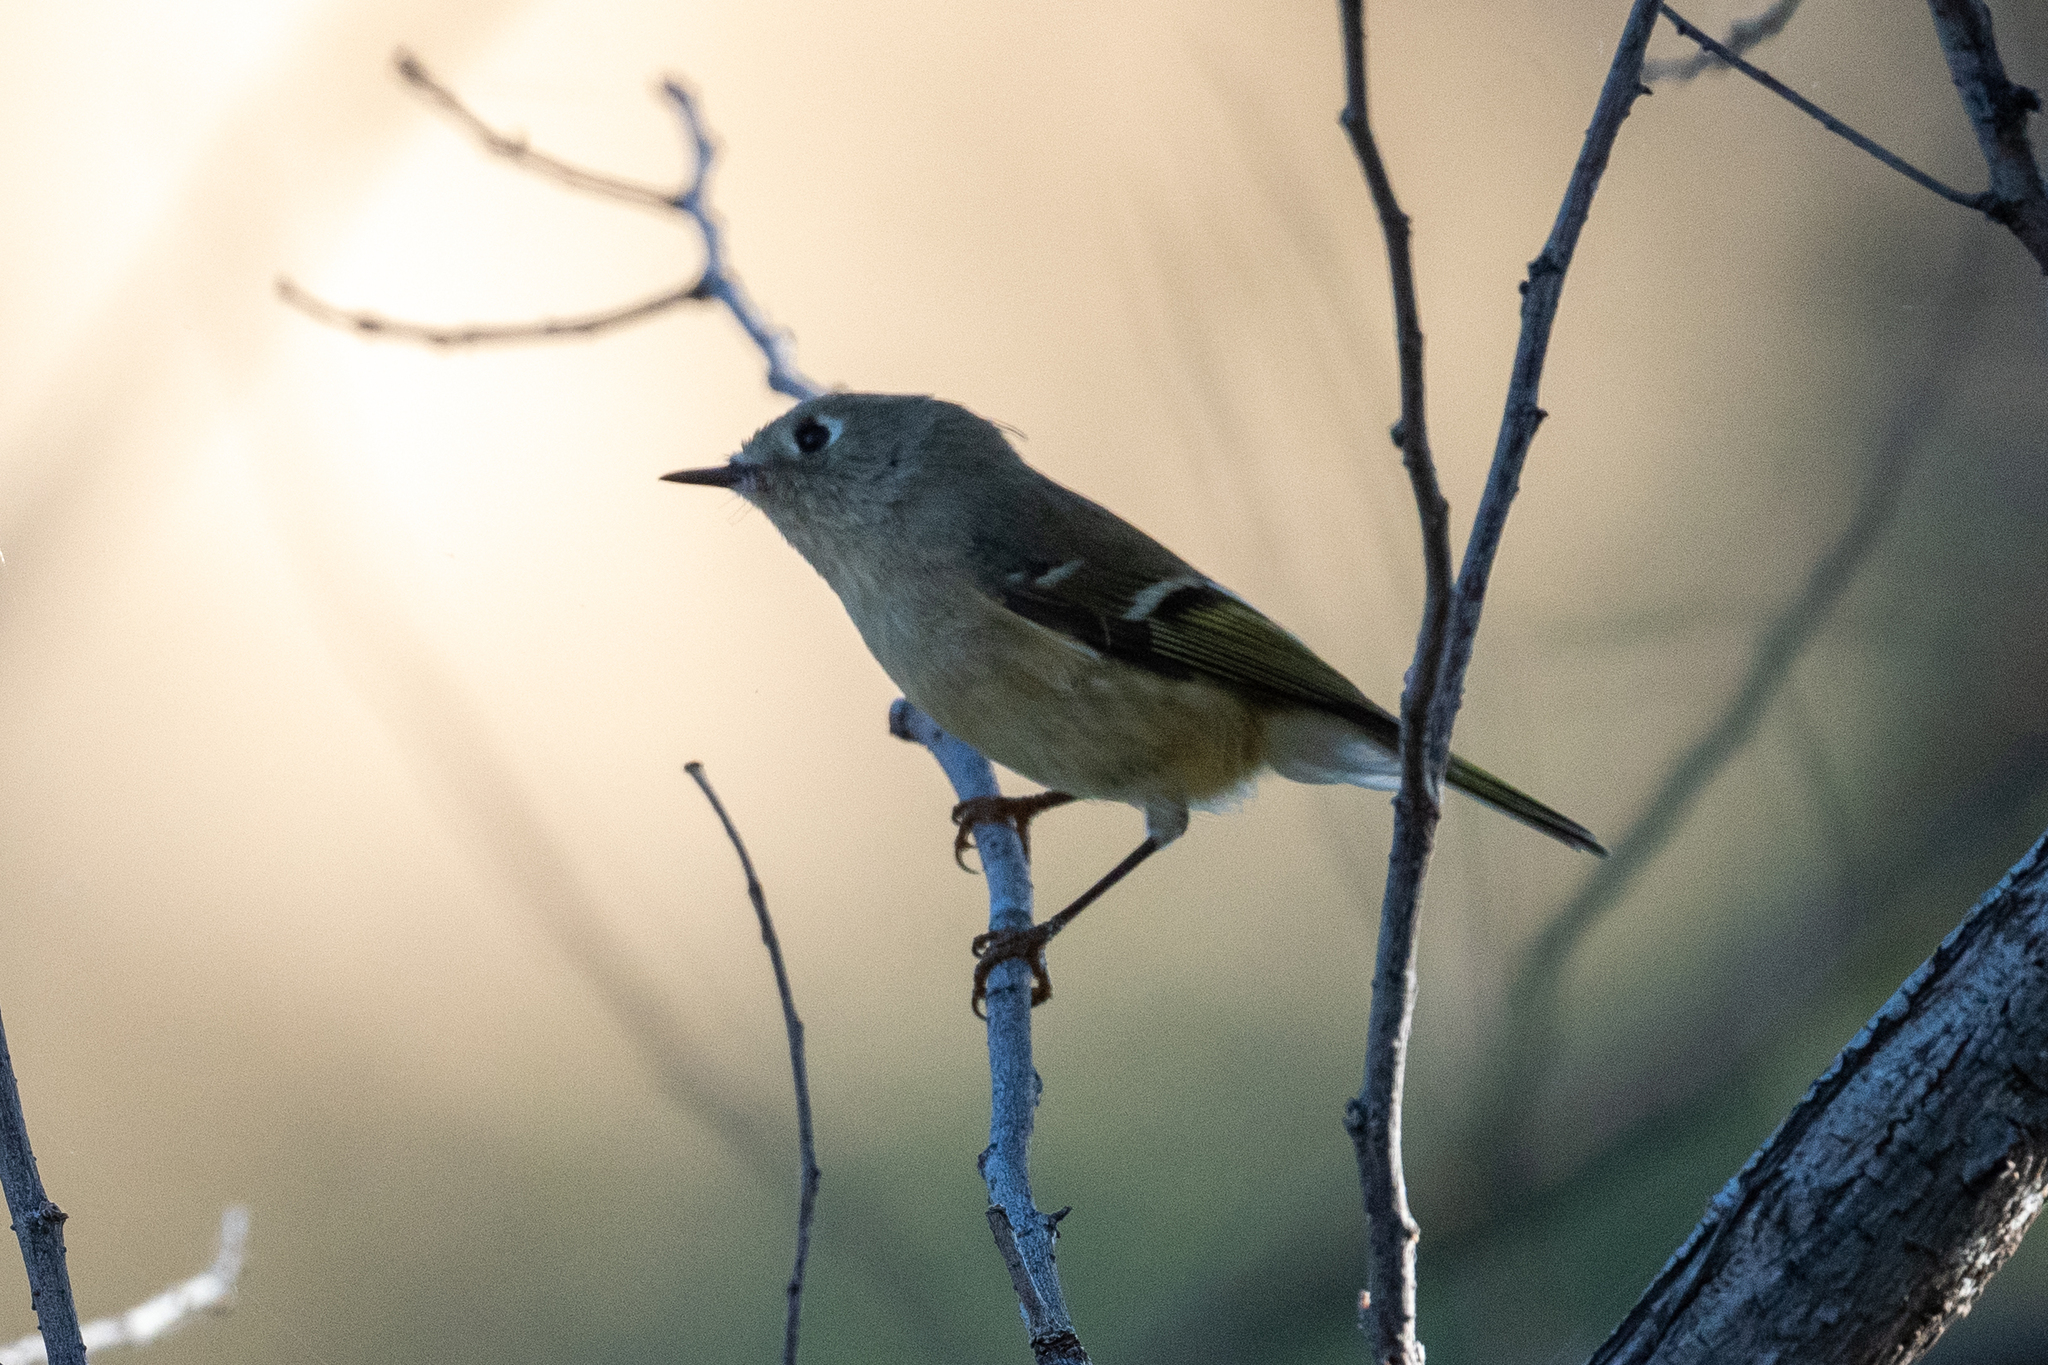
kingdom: Animalia
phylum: Chordata
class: Aves
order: Passeriformes
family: Regulidae
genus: Regulus
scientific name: Regulus calendula
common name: Ruby-crowned kinglet
